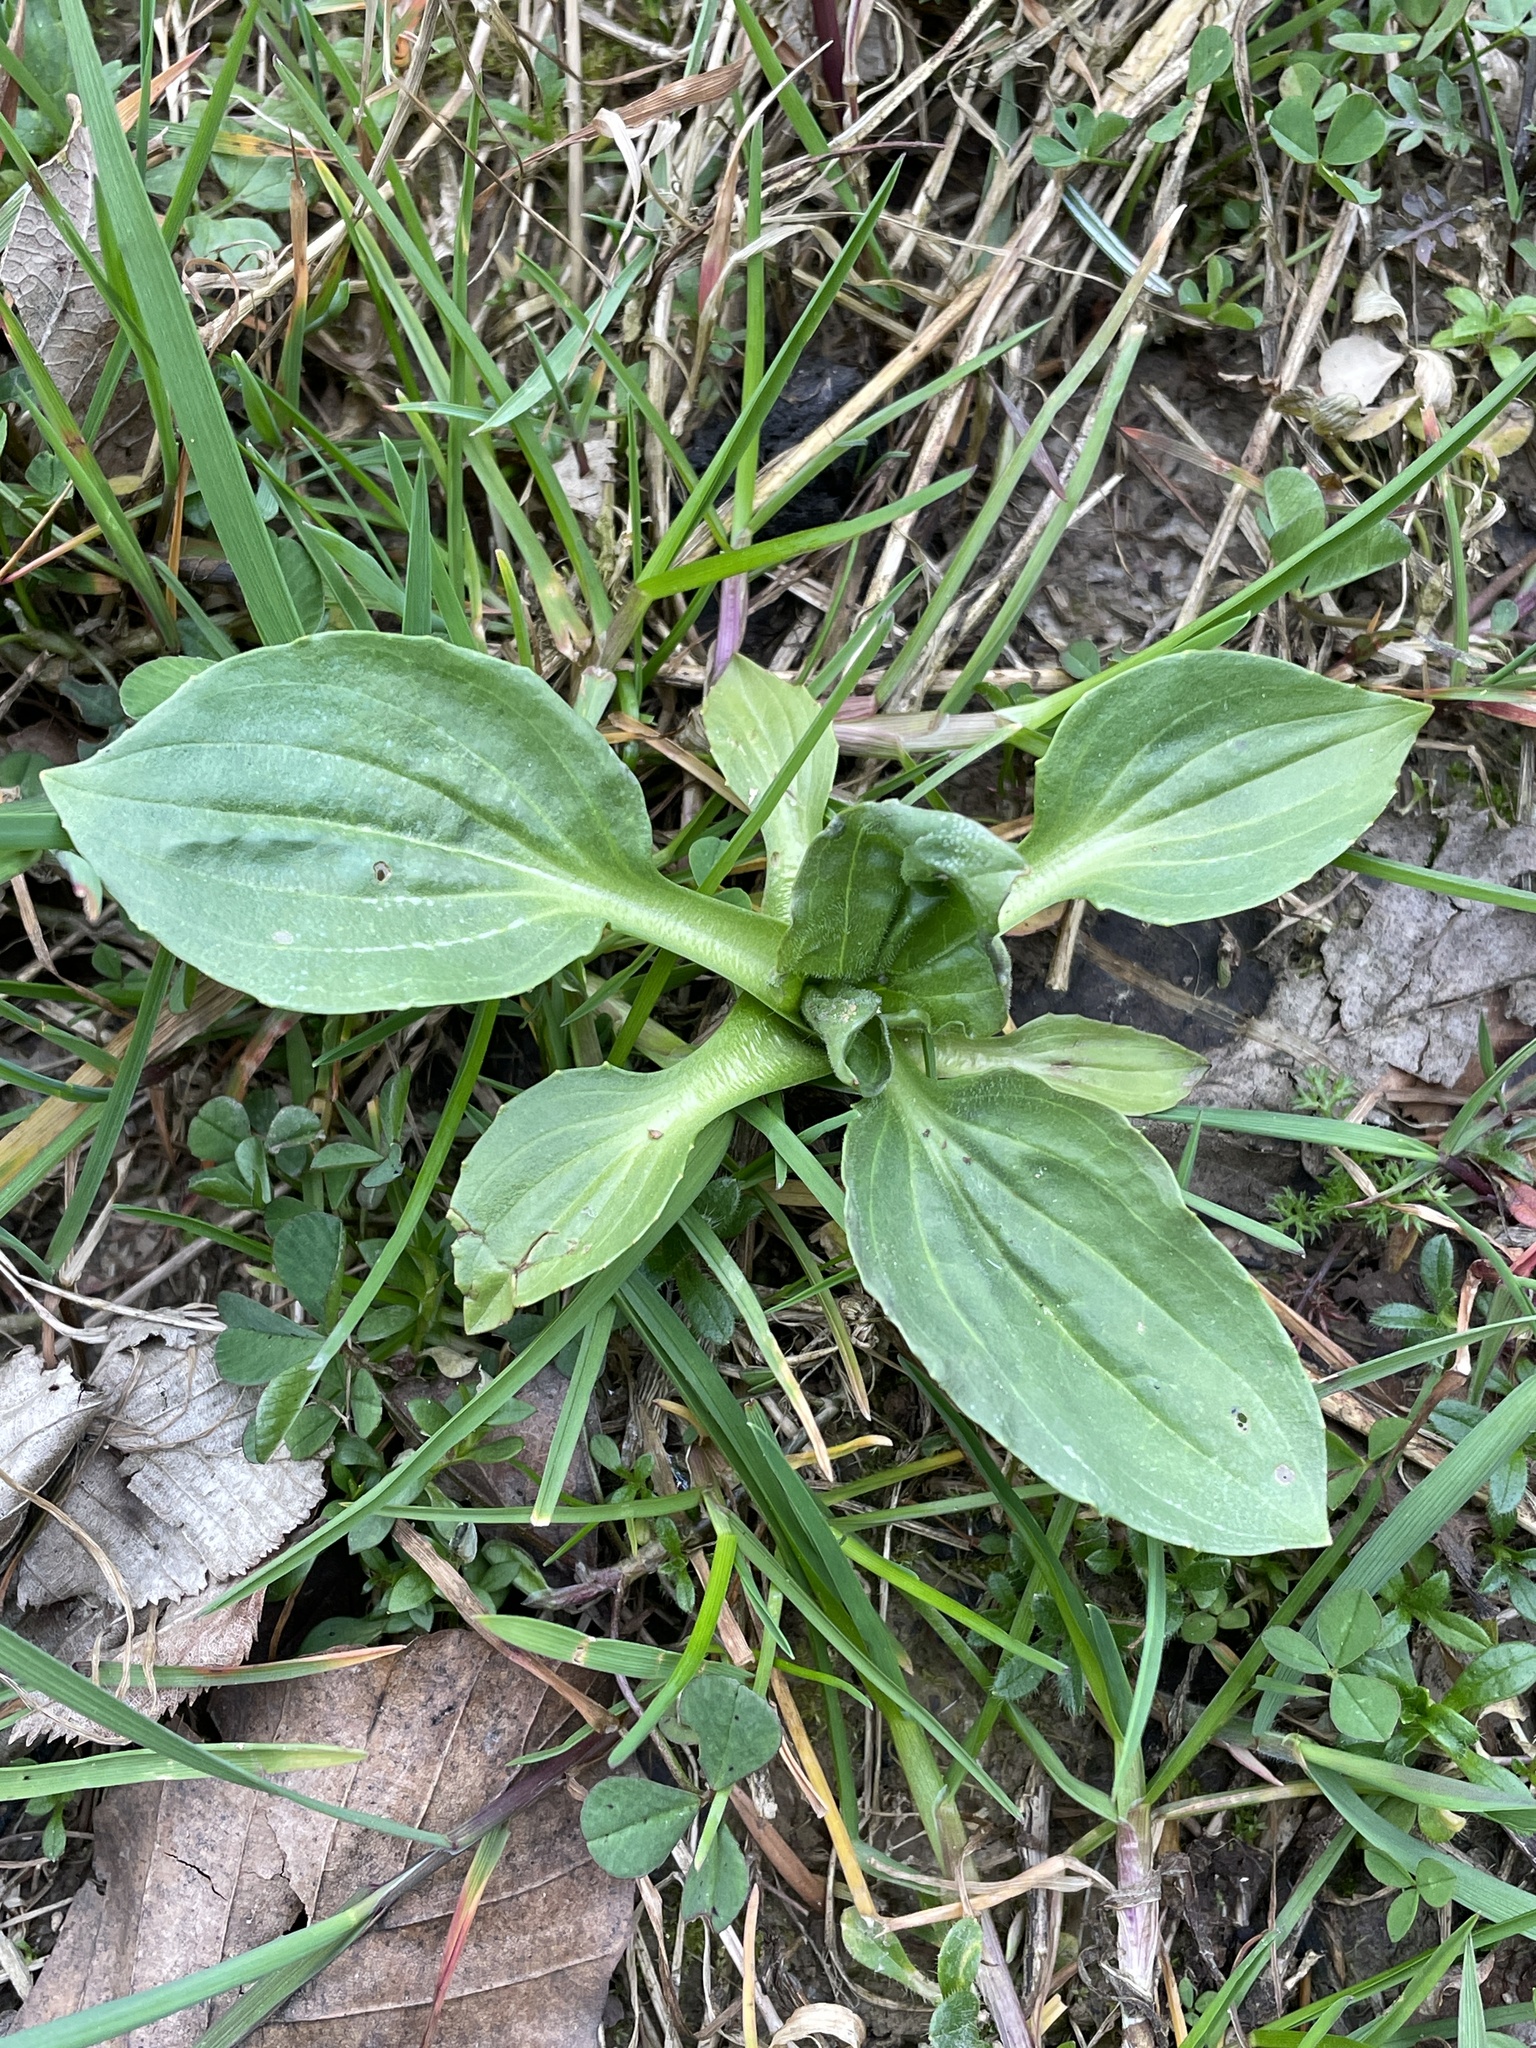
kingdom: Plantae
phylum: Tracheophyta
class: Magnoliopsida
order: Lamiales
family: Plantaginaceae
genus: Plantago
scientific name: Plantago major
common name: Common plantain
